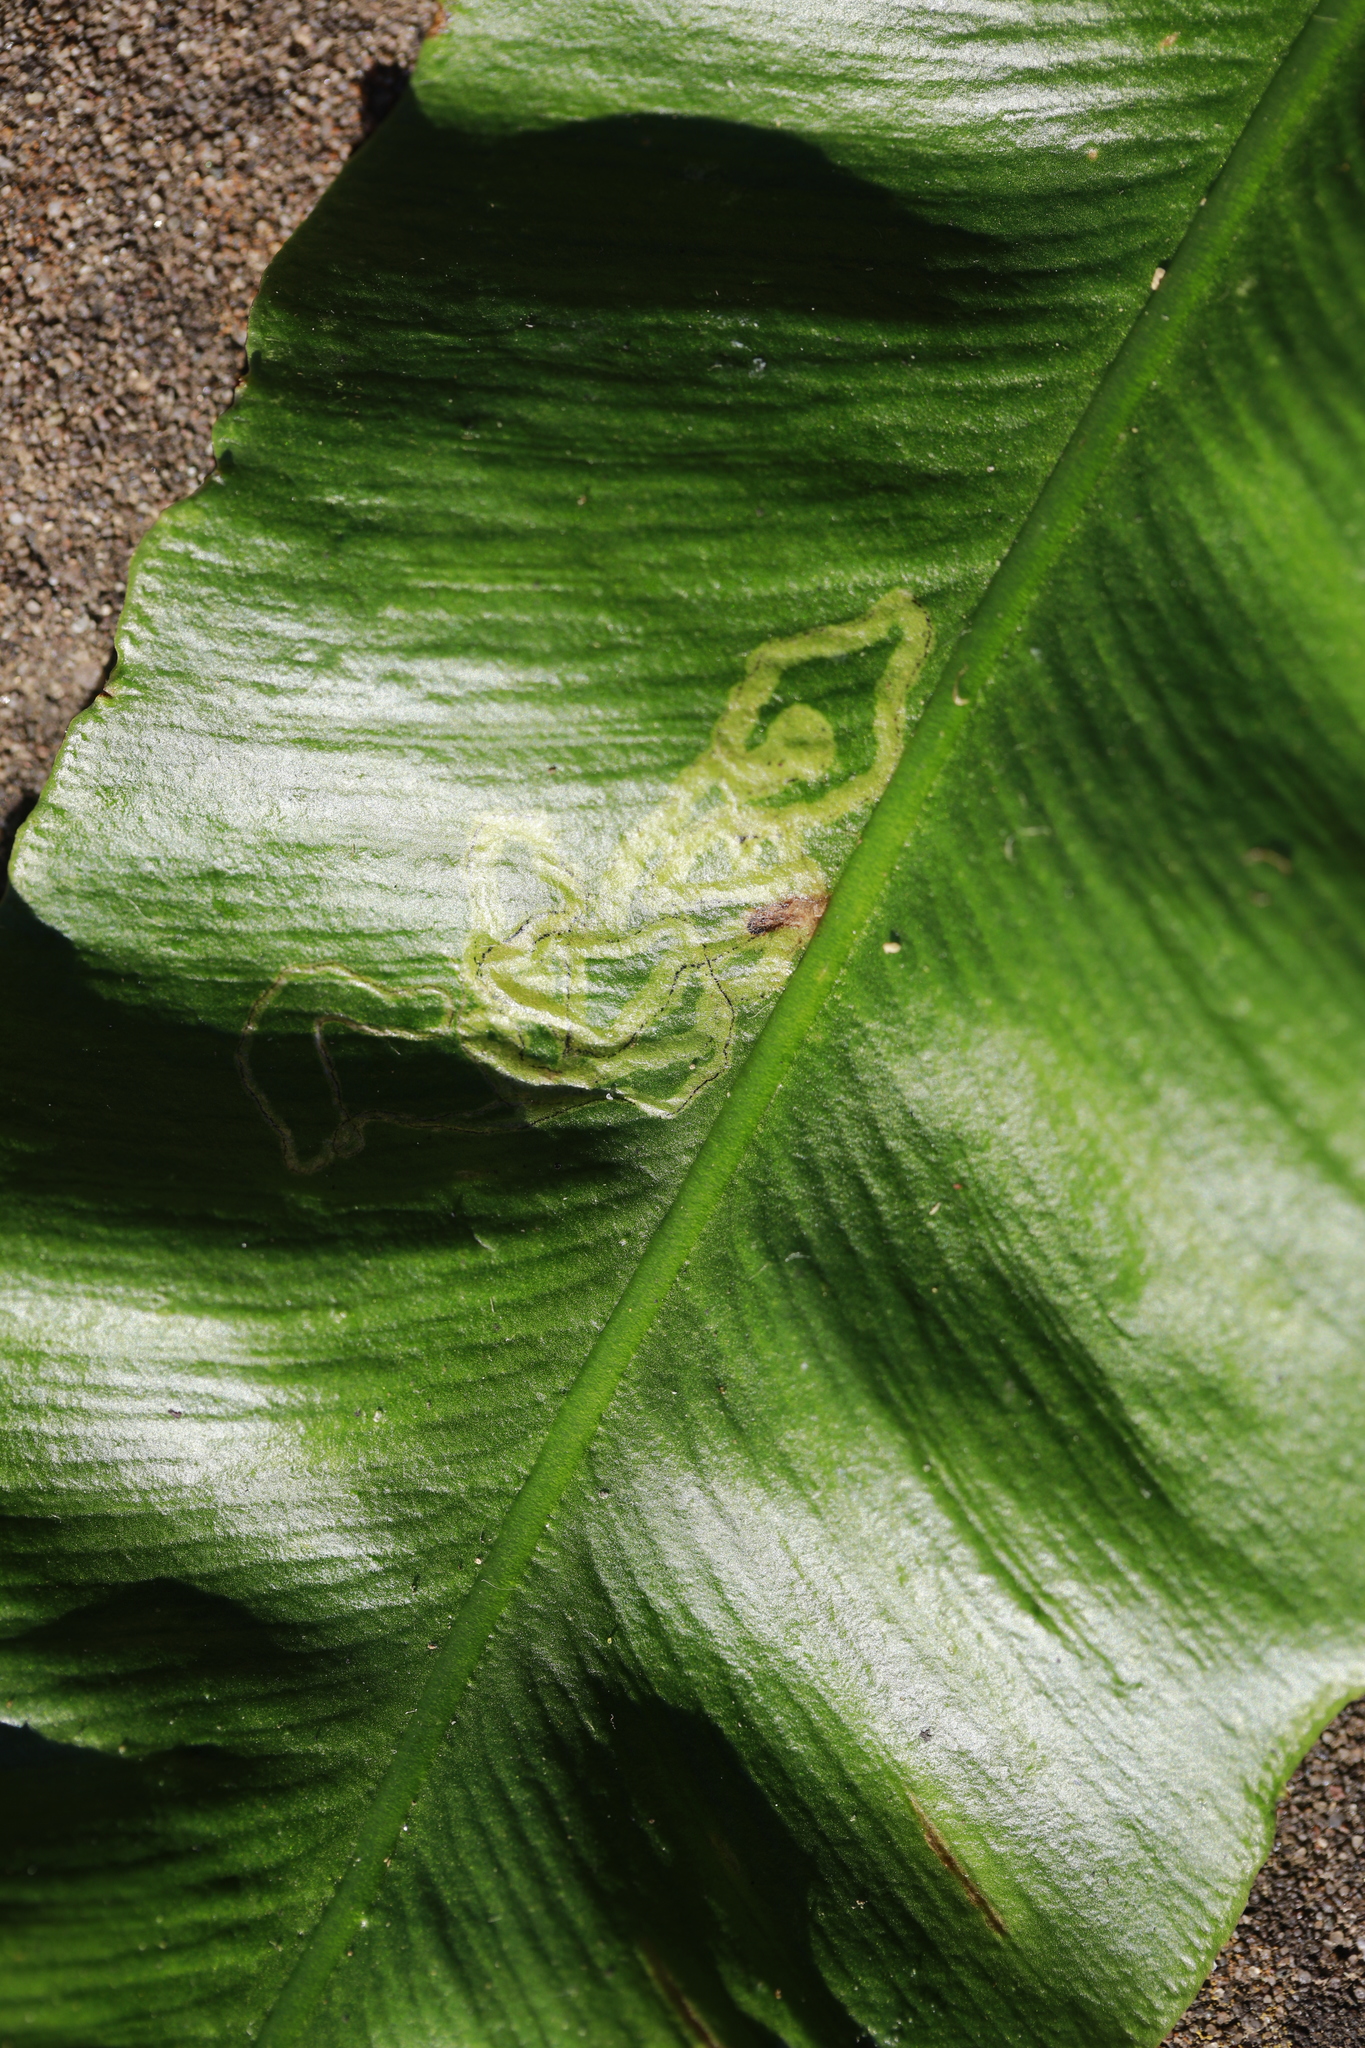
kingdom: Animalia
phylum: Arthropoda
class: Insecta
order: Diptera
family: Agromyzidae
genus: Phytomyza
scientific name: Phytomyza scolopendri
